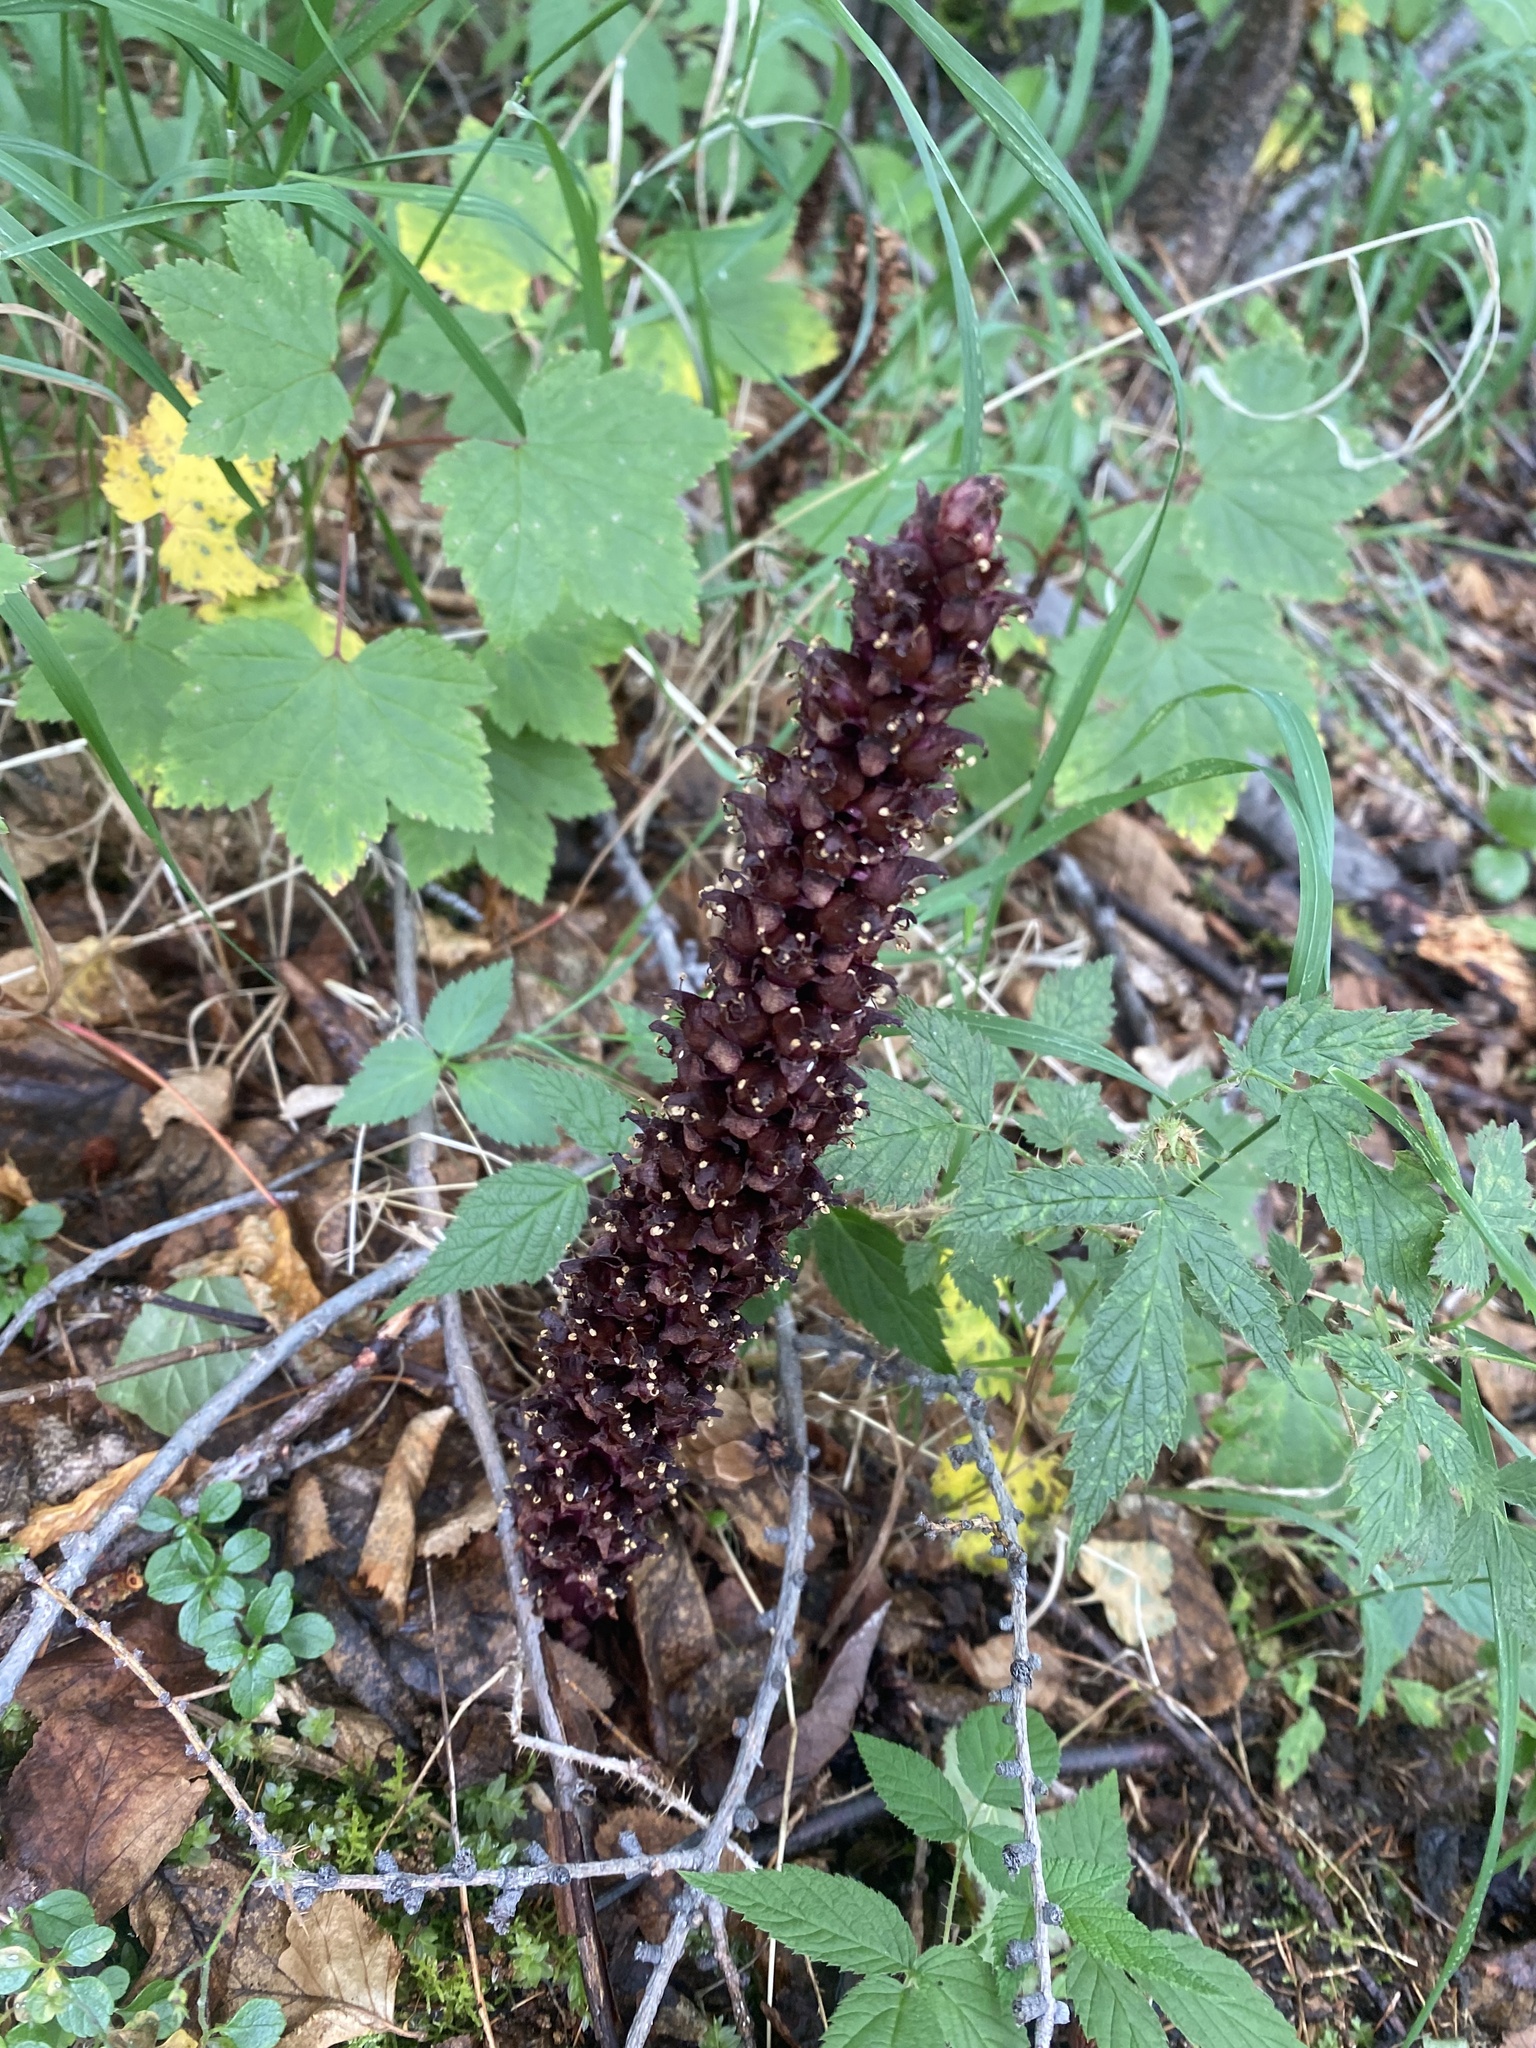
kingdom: Plantae
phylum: Tracheophyta
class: Magnoliopsida
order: Lamiales
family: Orobanchaceae
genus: Boschniakia
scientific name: Boschniakia rossica
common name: Poque
